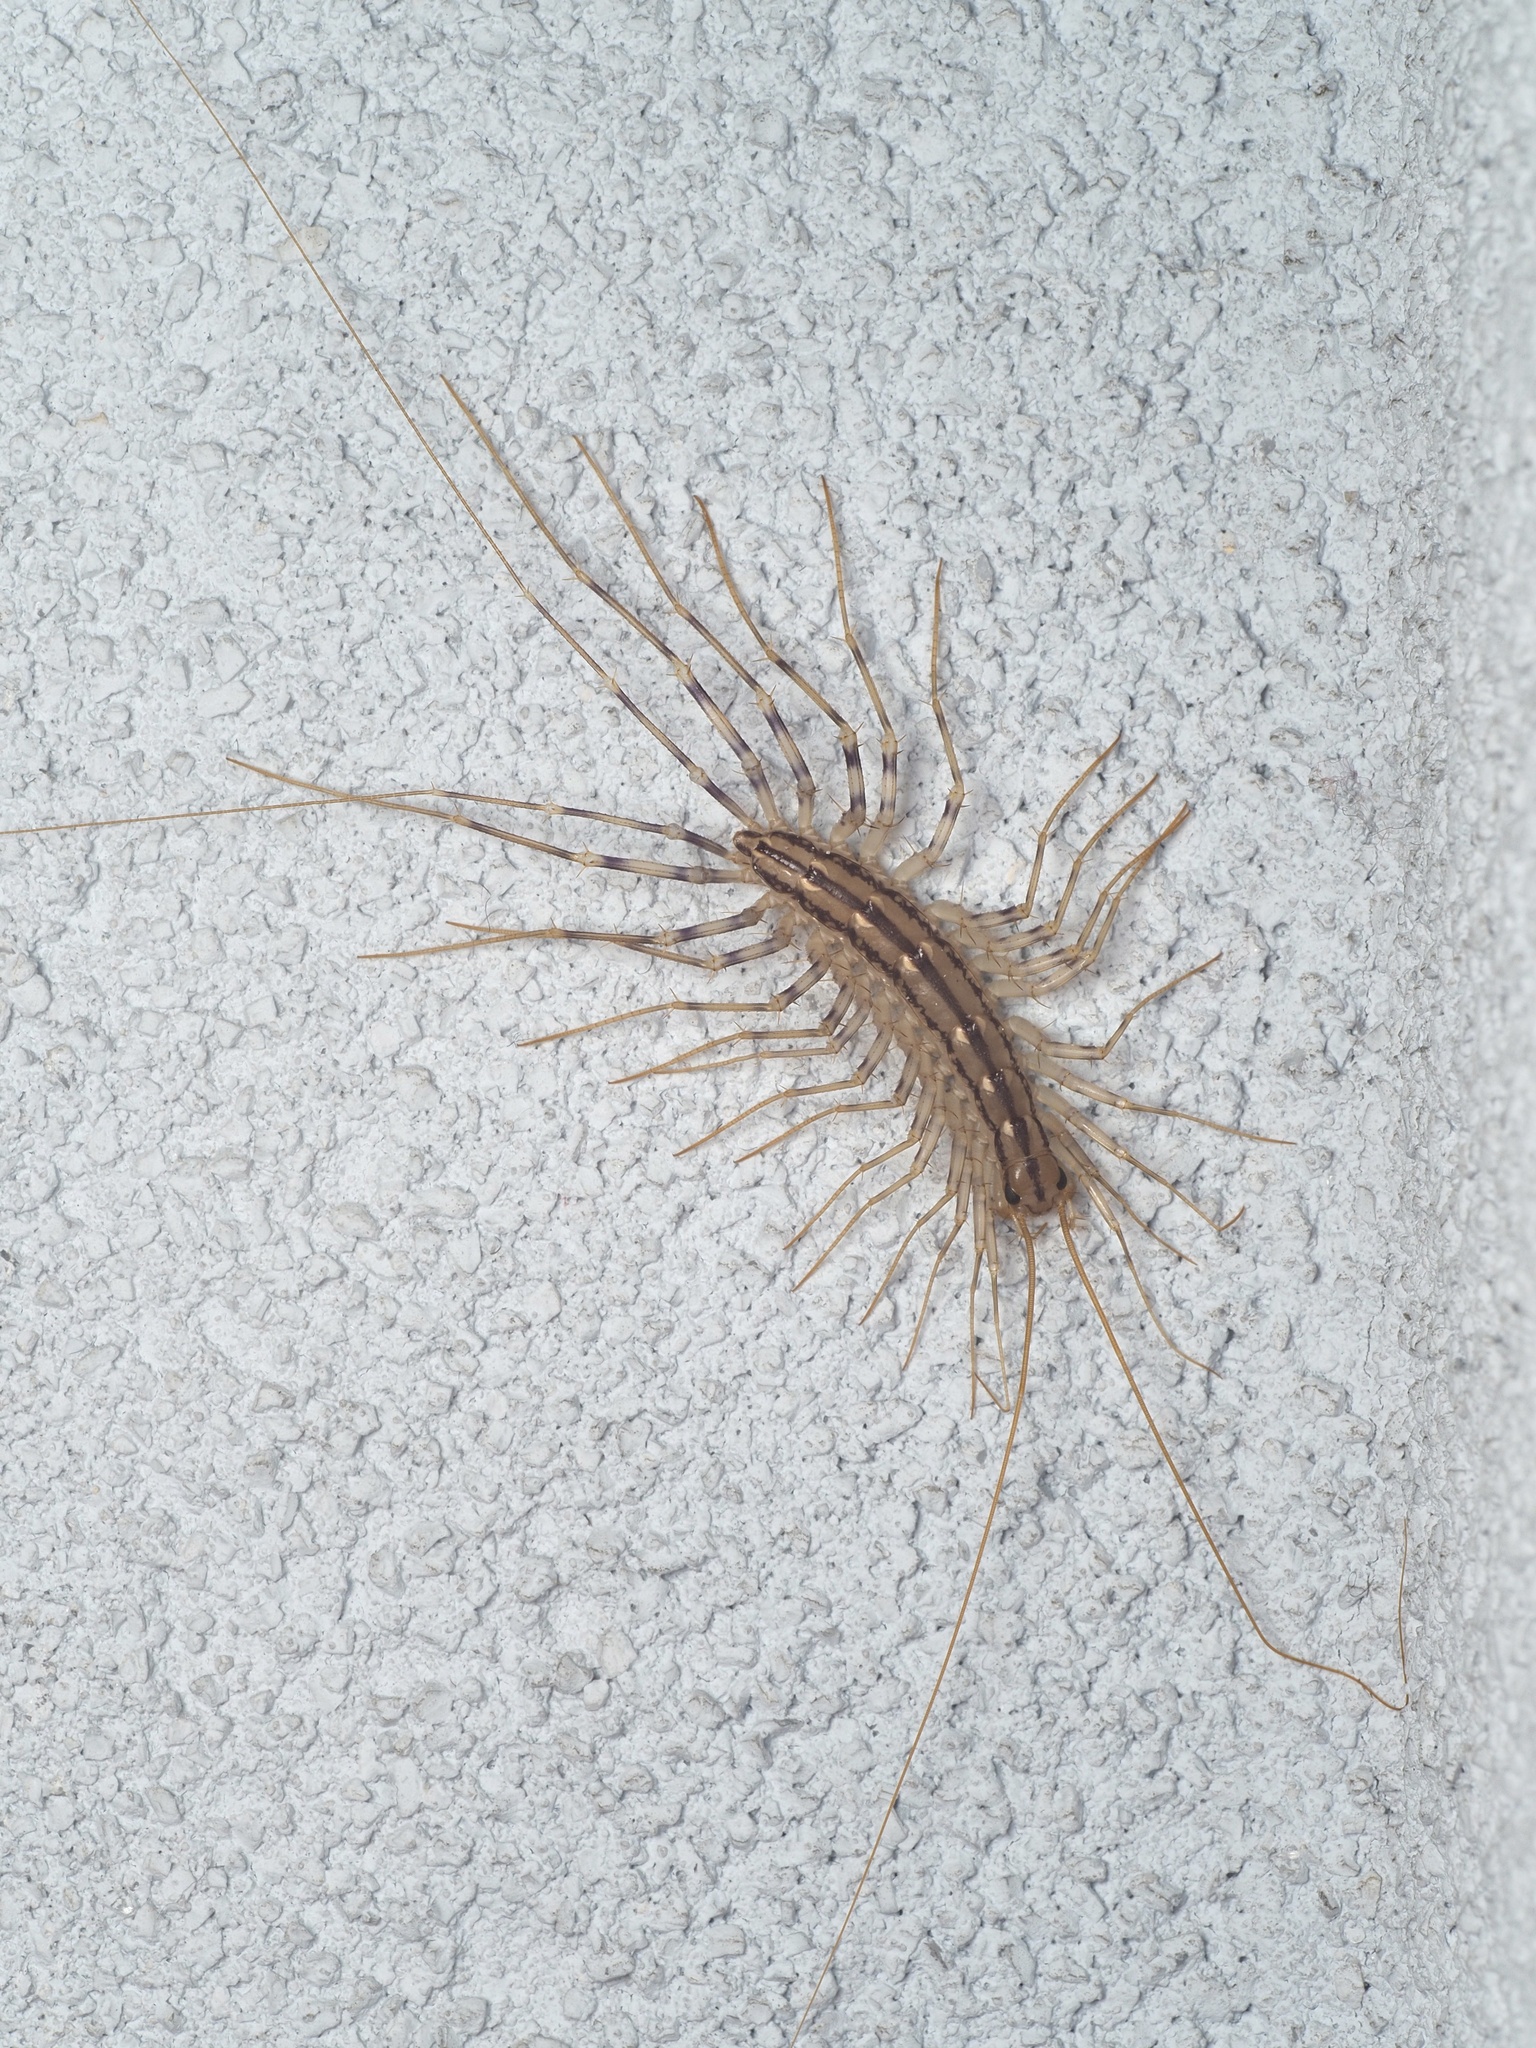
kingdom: Animalia
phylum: Arthropoda
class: Chilopoda
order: Scutigeromorpha
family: Scutigeridae
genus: Scutigera
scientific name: Scutigera coleoptrata
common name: House centipede
